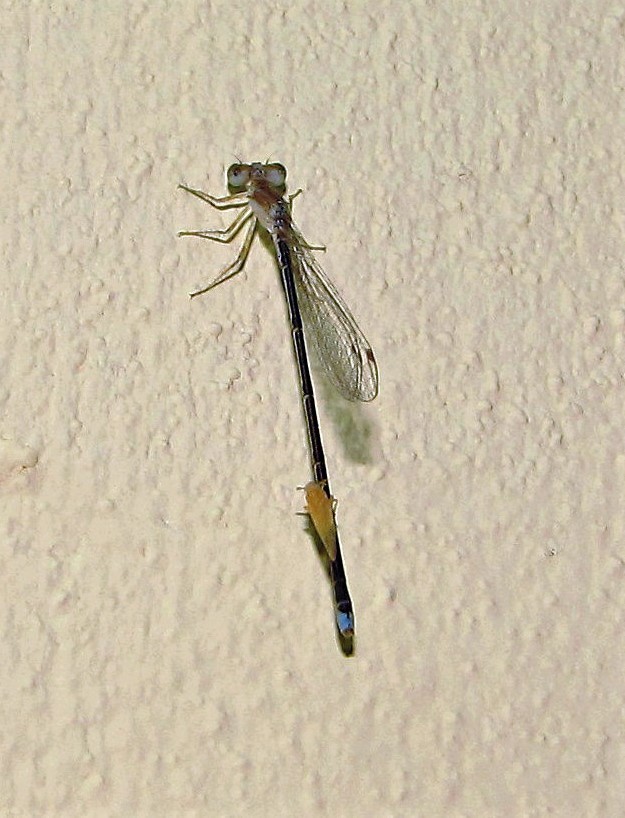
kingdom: Animalia
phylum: Arthropoda
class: Insecta
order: Odonata
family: Coenagrionidae
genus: Argentagrion
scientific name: Argentagrion ambiguum
